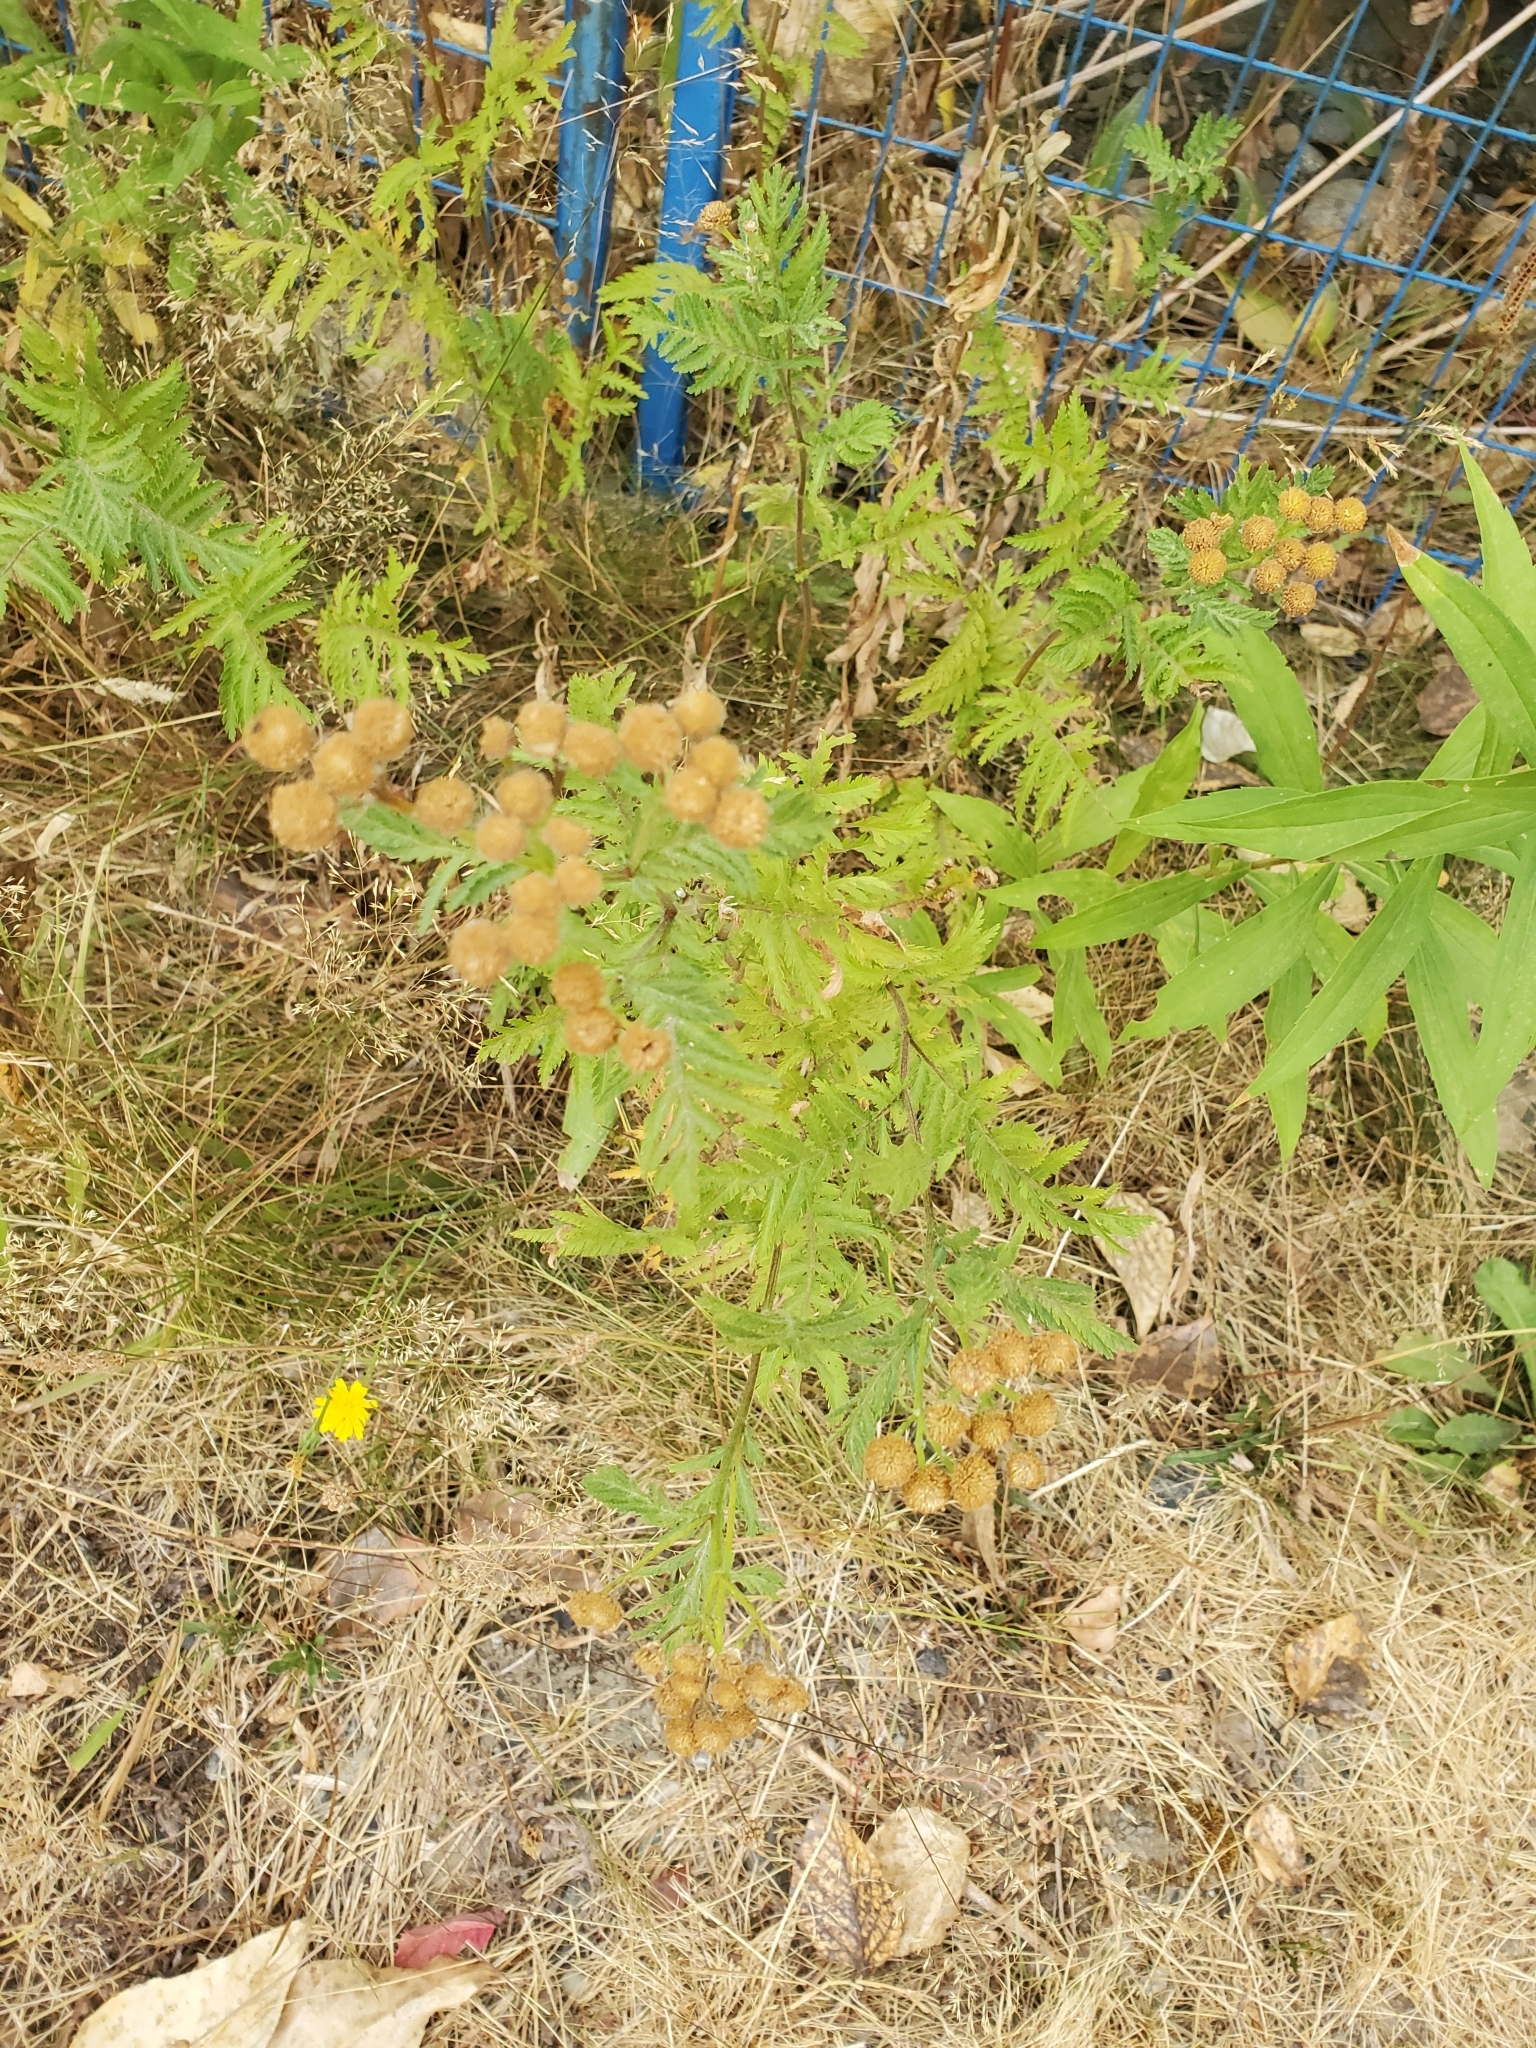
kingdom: Plantae
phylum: Tracheophyta
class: Magnoliopsida
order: Asterales
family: Asteraceae
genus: Tanacetum
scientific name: Tanacetum vulgare
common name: Common tansy
